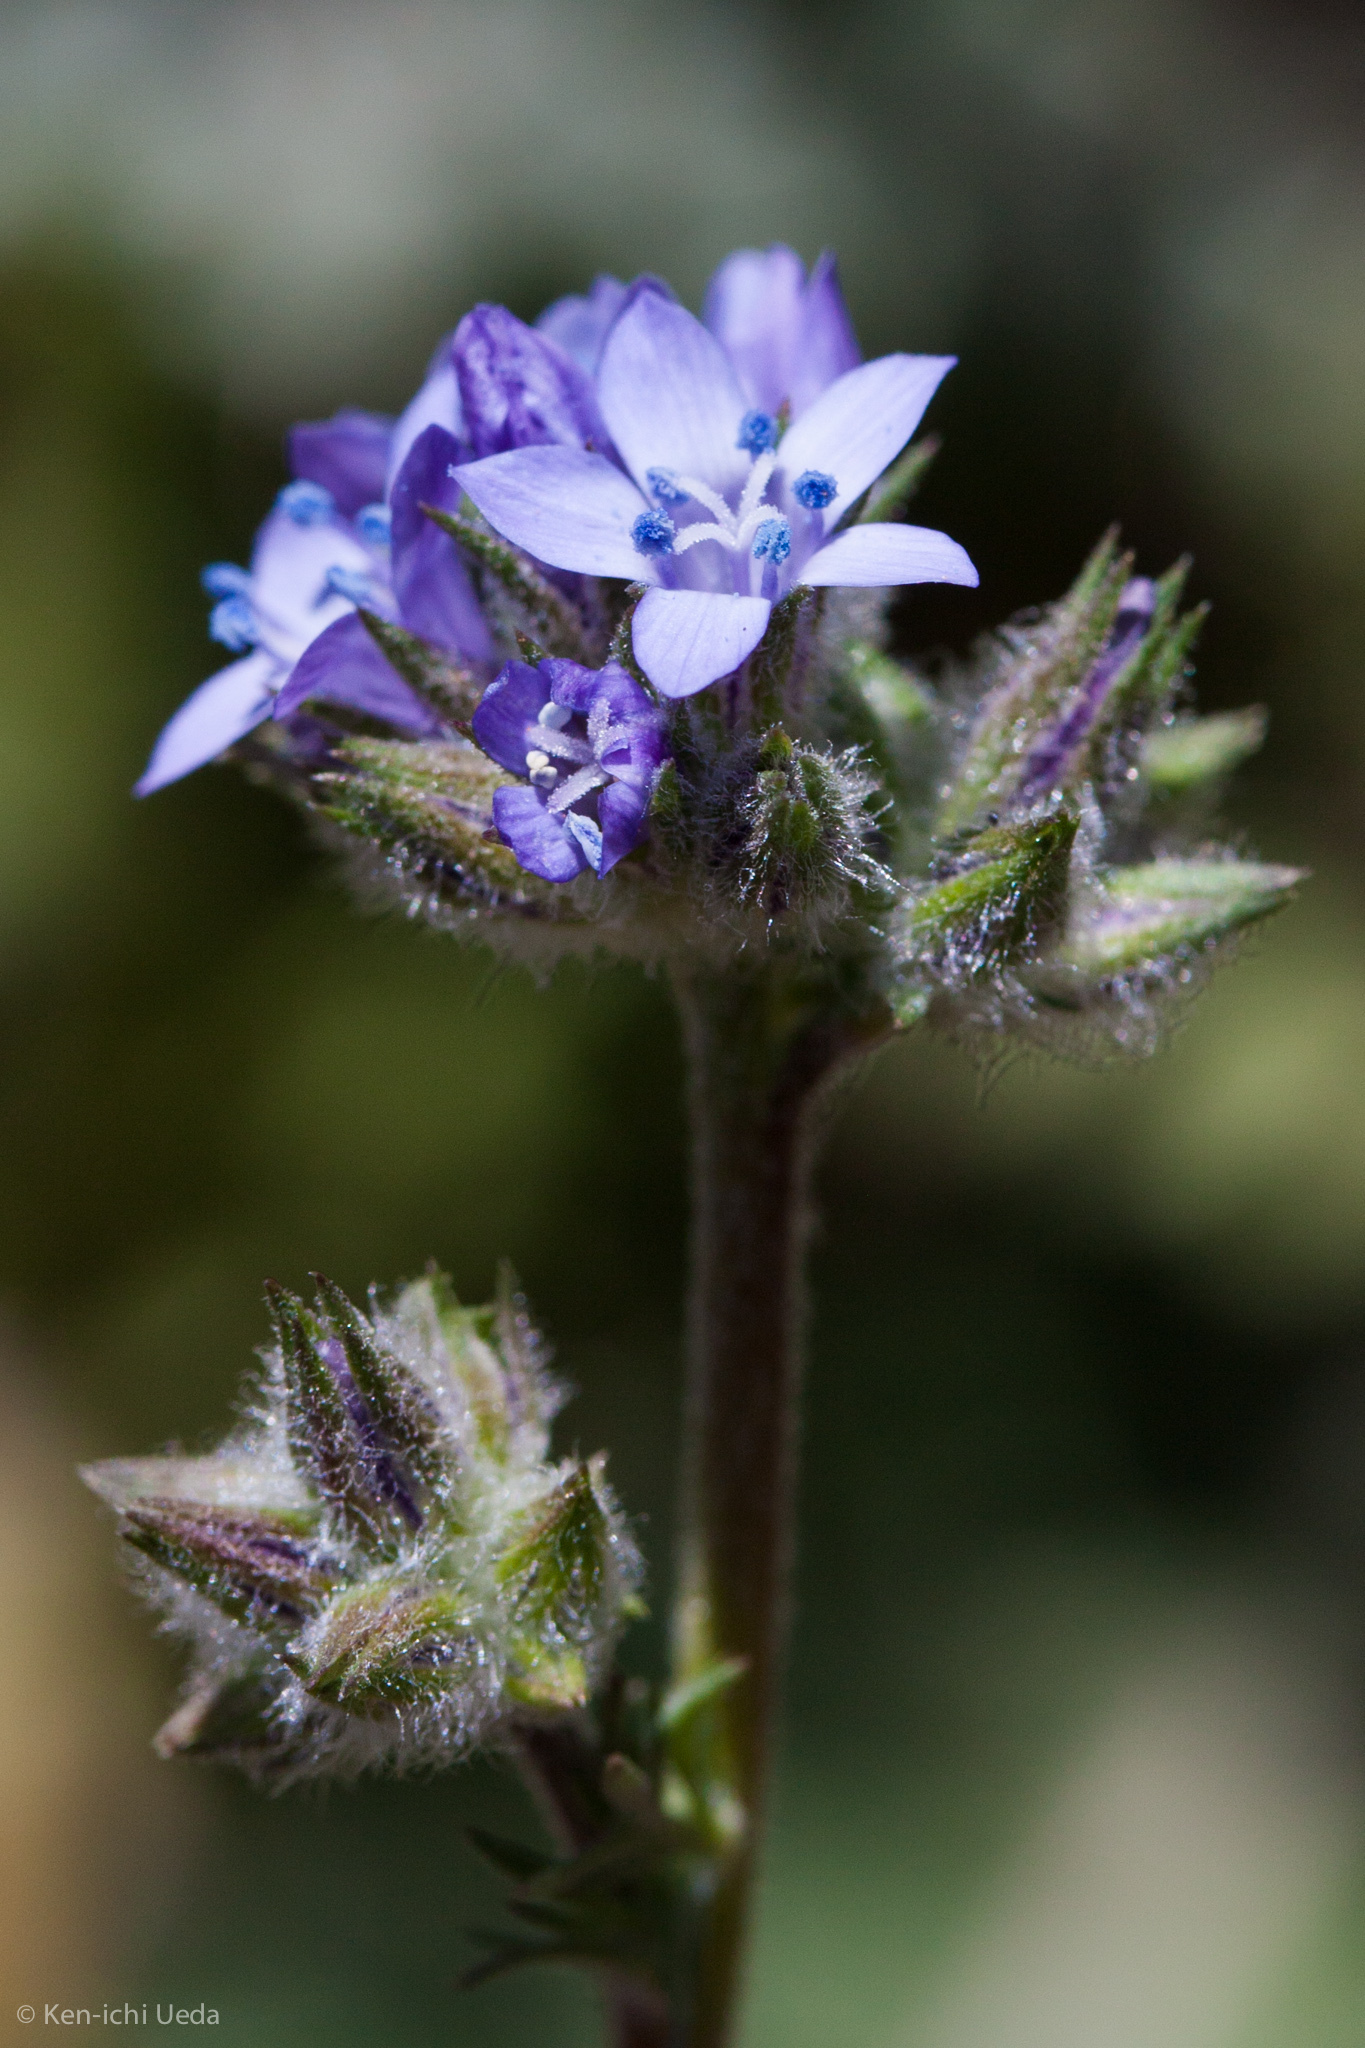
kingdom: Plantae
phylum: Tracheophyta
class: Magnoliopsida
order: Ericales
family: Polemoniaceae
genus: Gilia
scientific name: Gilia achilleifolia
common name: California gily-flower
